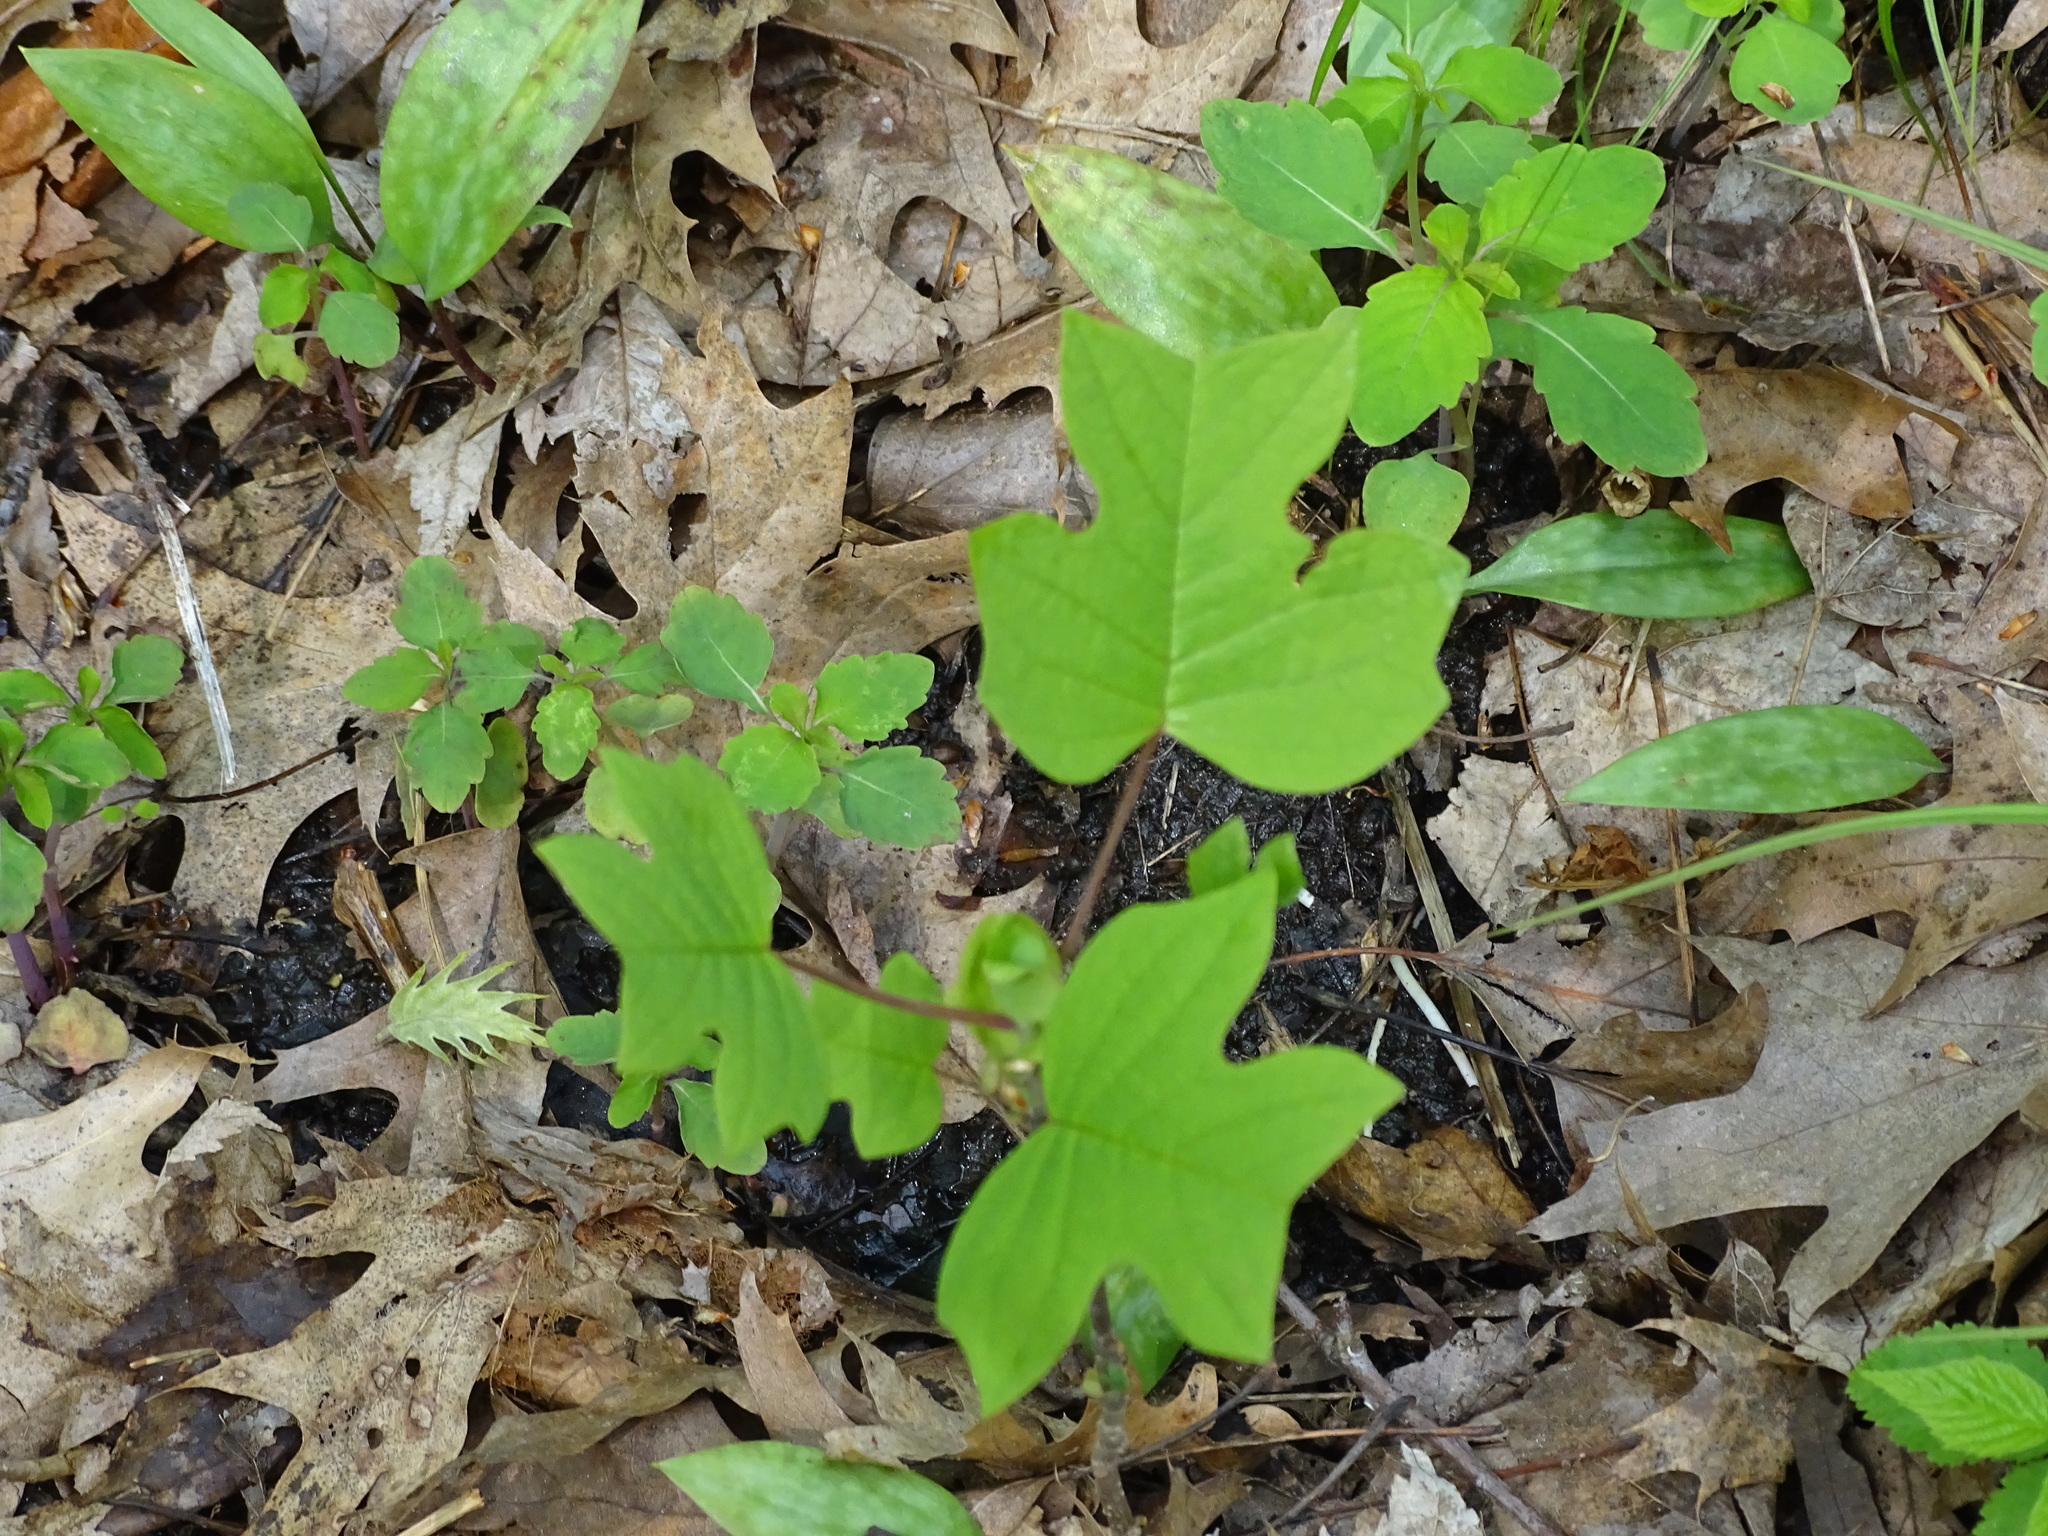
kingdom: Plantae
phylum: Tracheophyta
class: Magnoliopsida
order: Magnoliales
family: Magnoliaceae
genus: Liriodendron
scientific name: Liriodendron tulipifera
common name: Tulip tree
